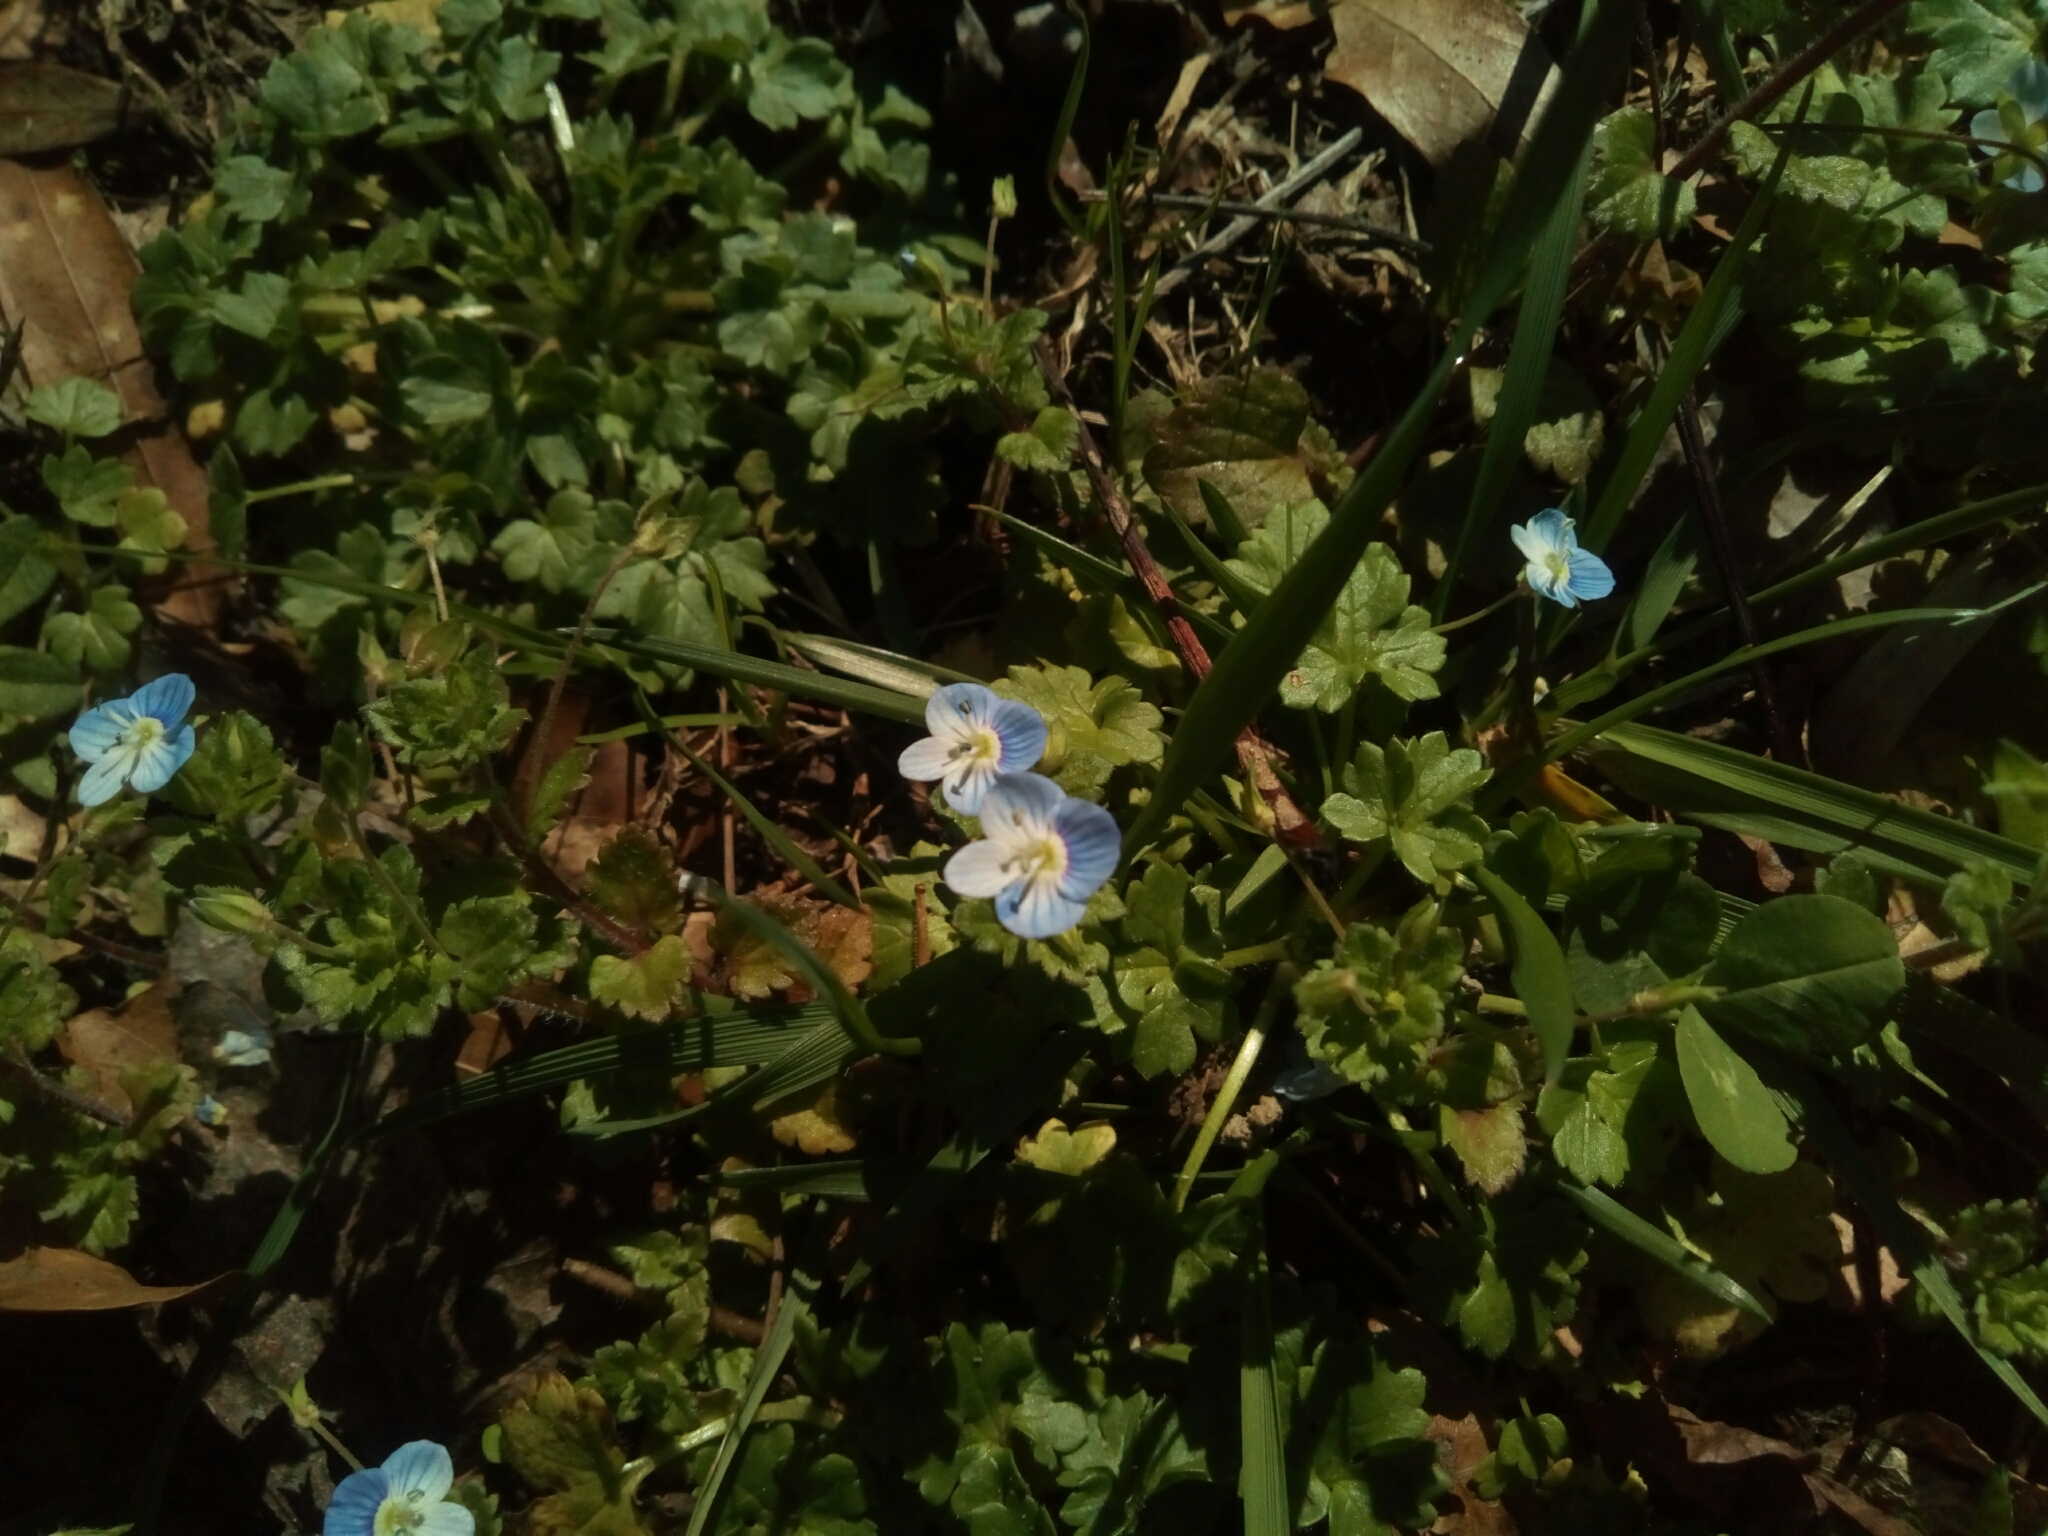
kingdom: Plantae
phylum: Tracheophyta
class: Magnoliopsida
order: Lamiales
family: Plantaginaceae
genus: Veronica
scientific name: Veronica persica
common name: Common field-speedwell
